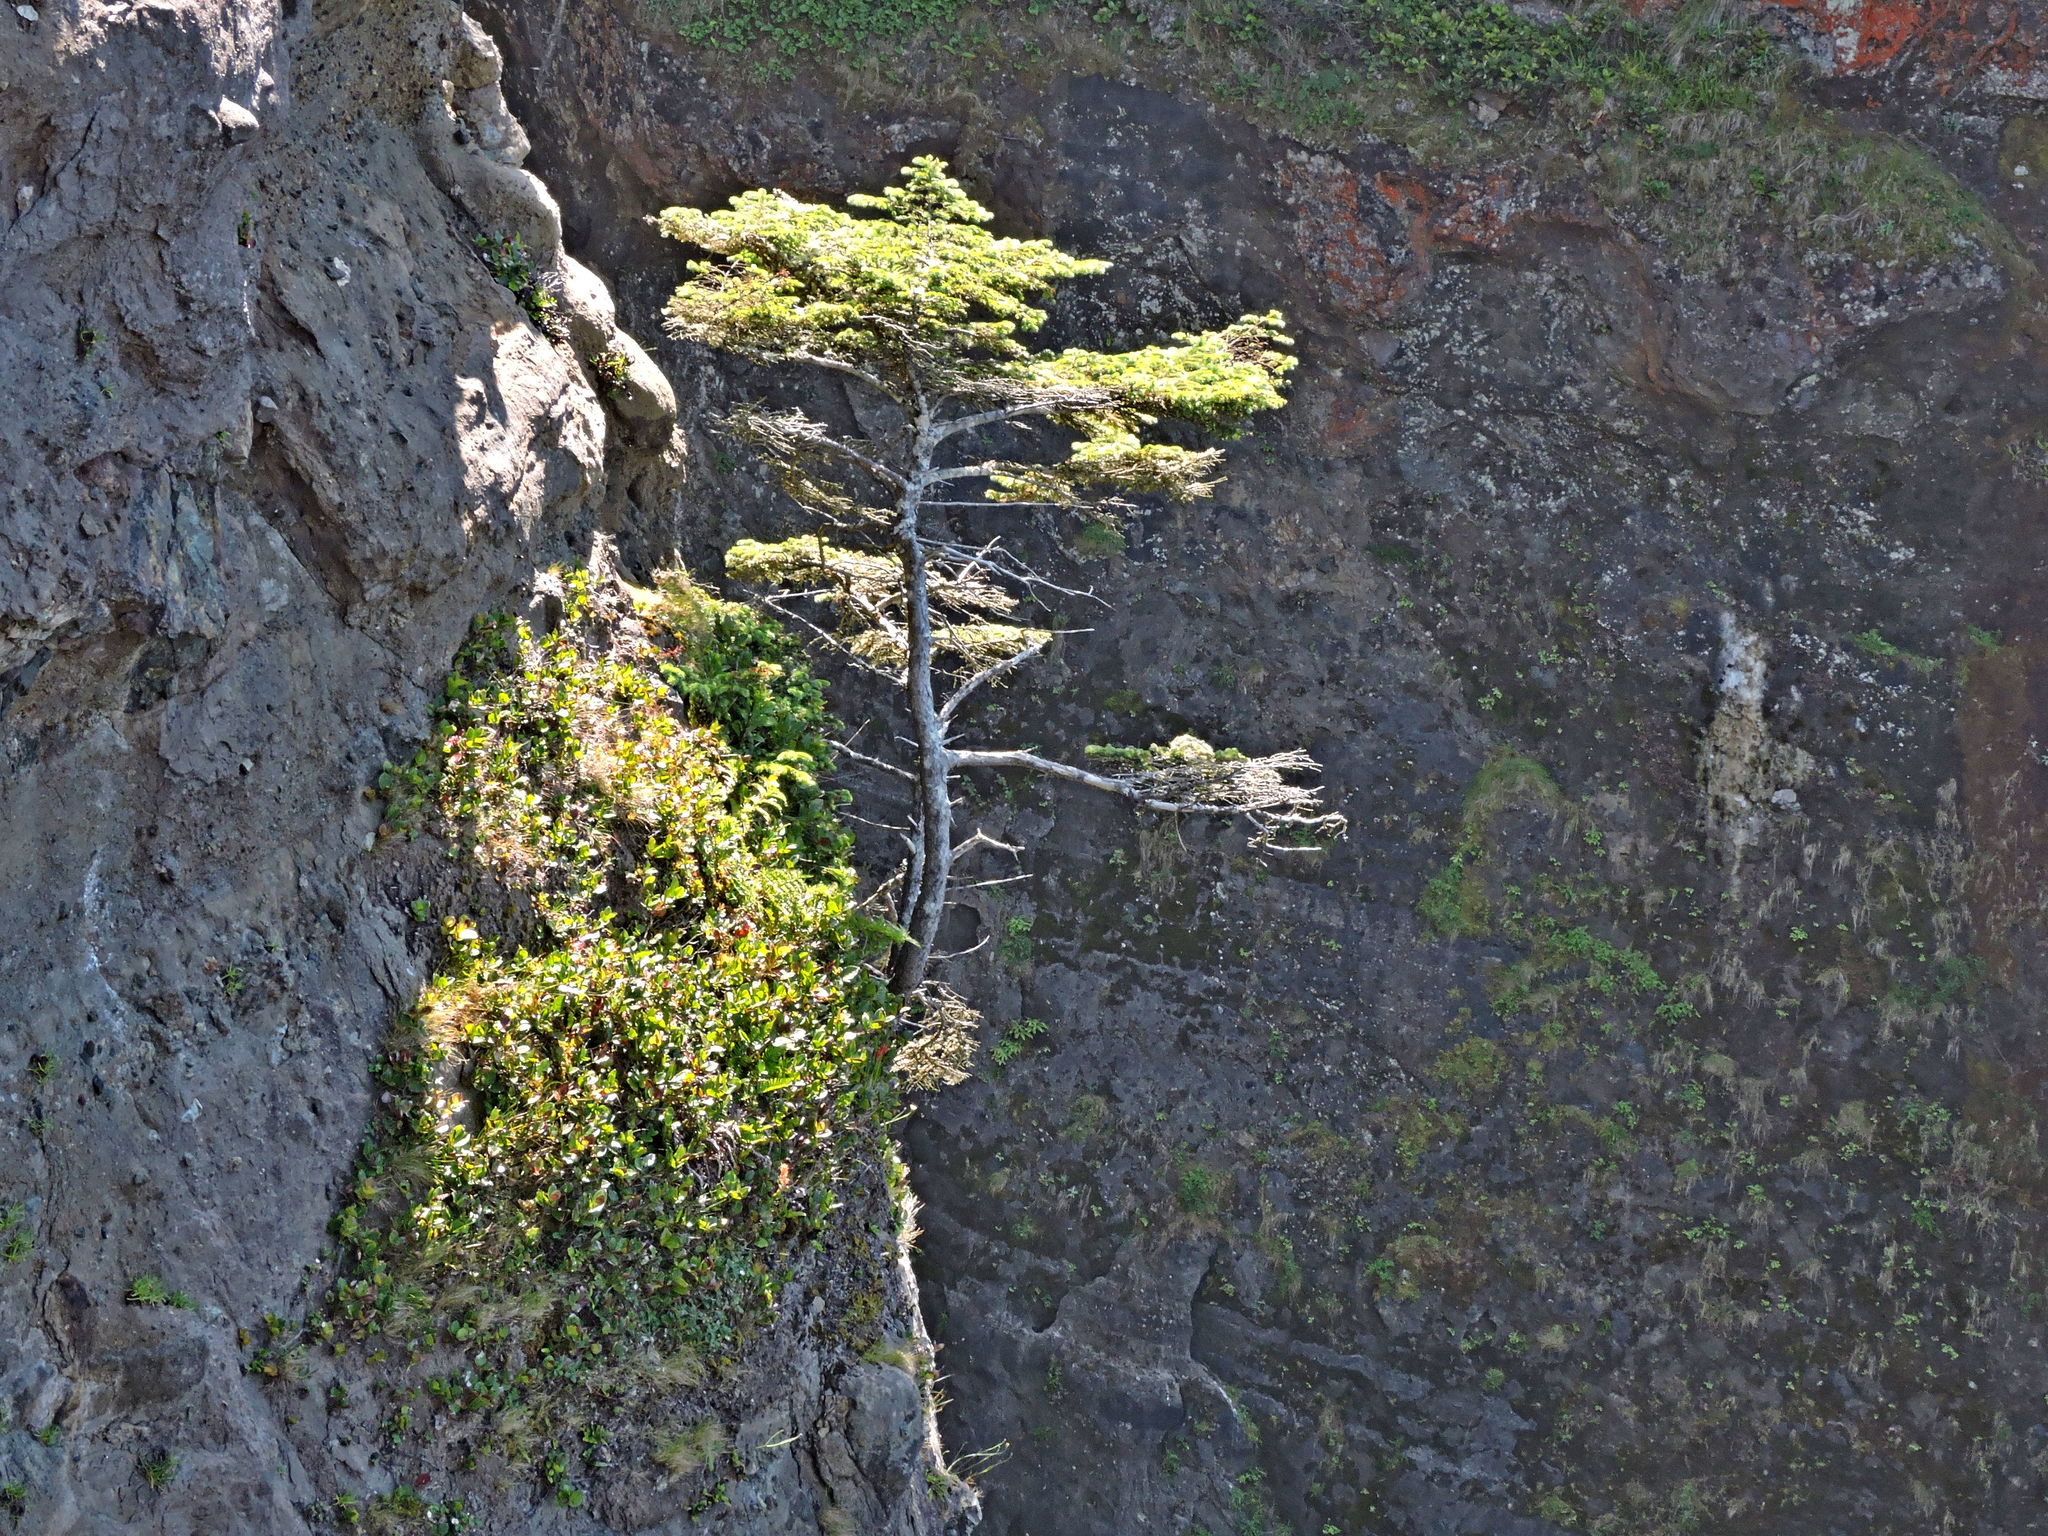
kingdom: Plantae
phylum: Tracheophyta
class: Pinopsida
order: Pinales
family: Pinaceae
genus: Picea
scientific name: Picea sitchensis
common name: Sitka spruce
